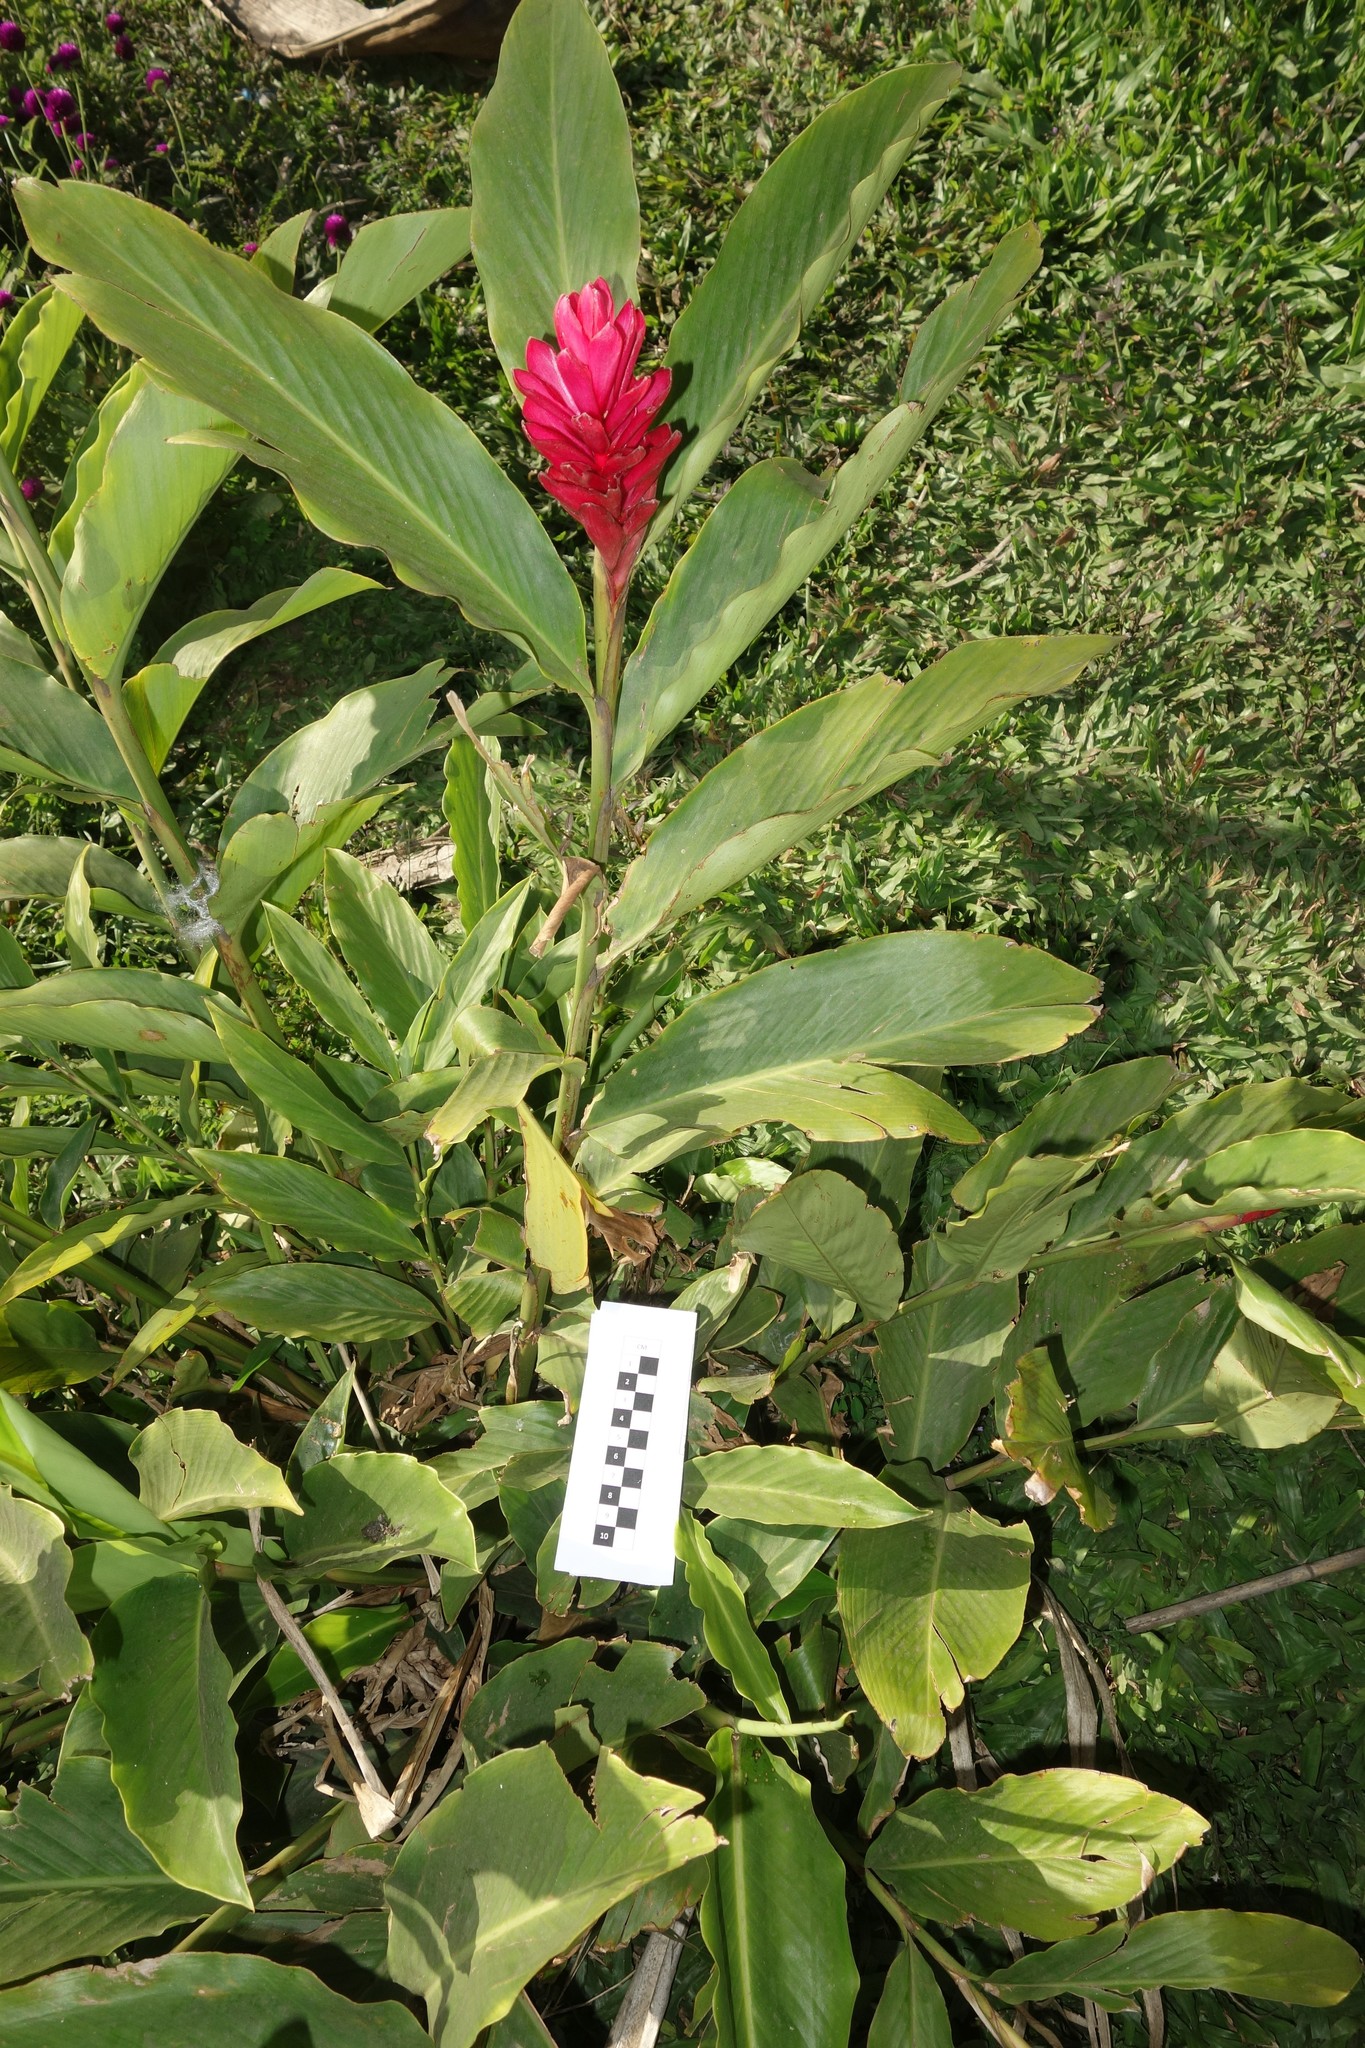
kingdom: Plantae
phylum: Tracheophyta
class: Liliopsida
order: Zingiberales
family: Zingiberaceae
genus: Alpinia
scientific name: Alpinia purpurata
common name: Red ginger
